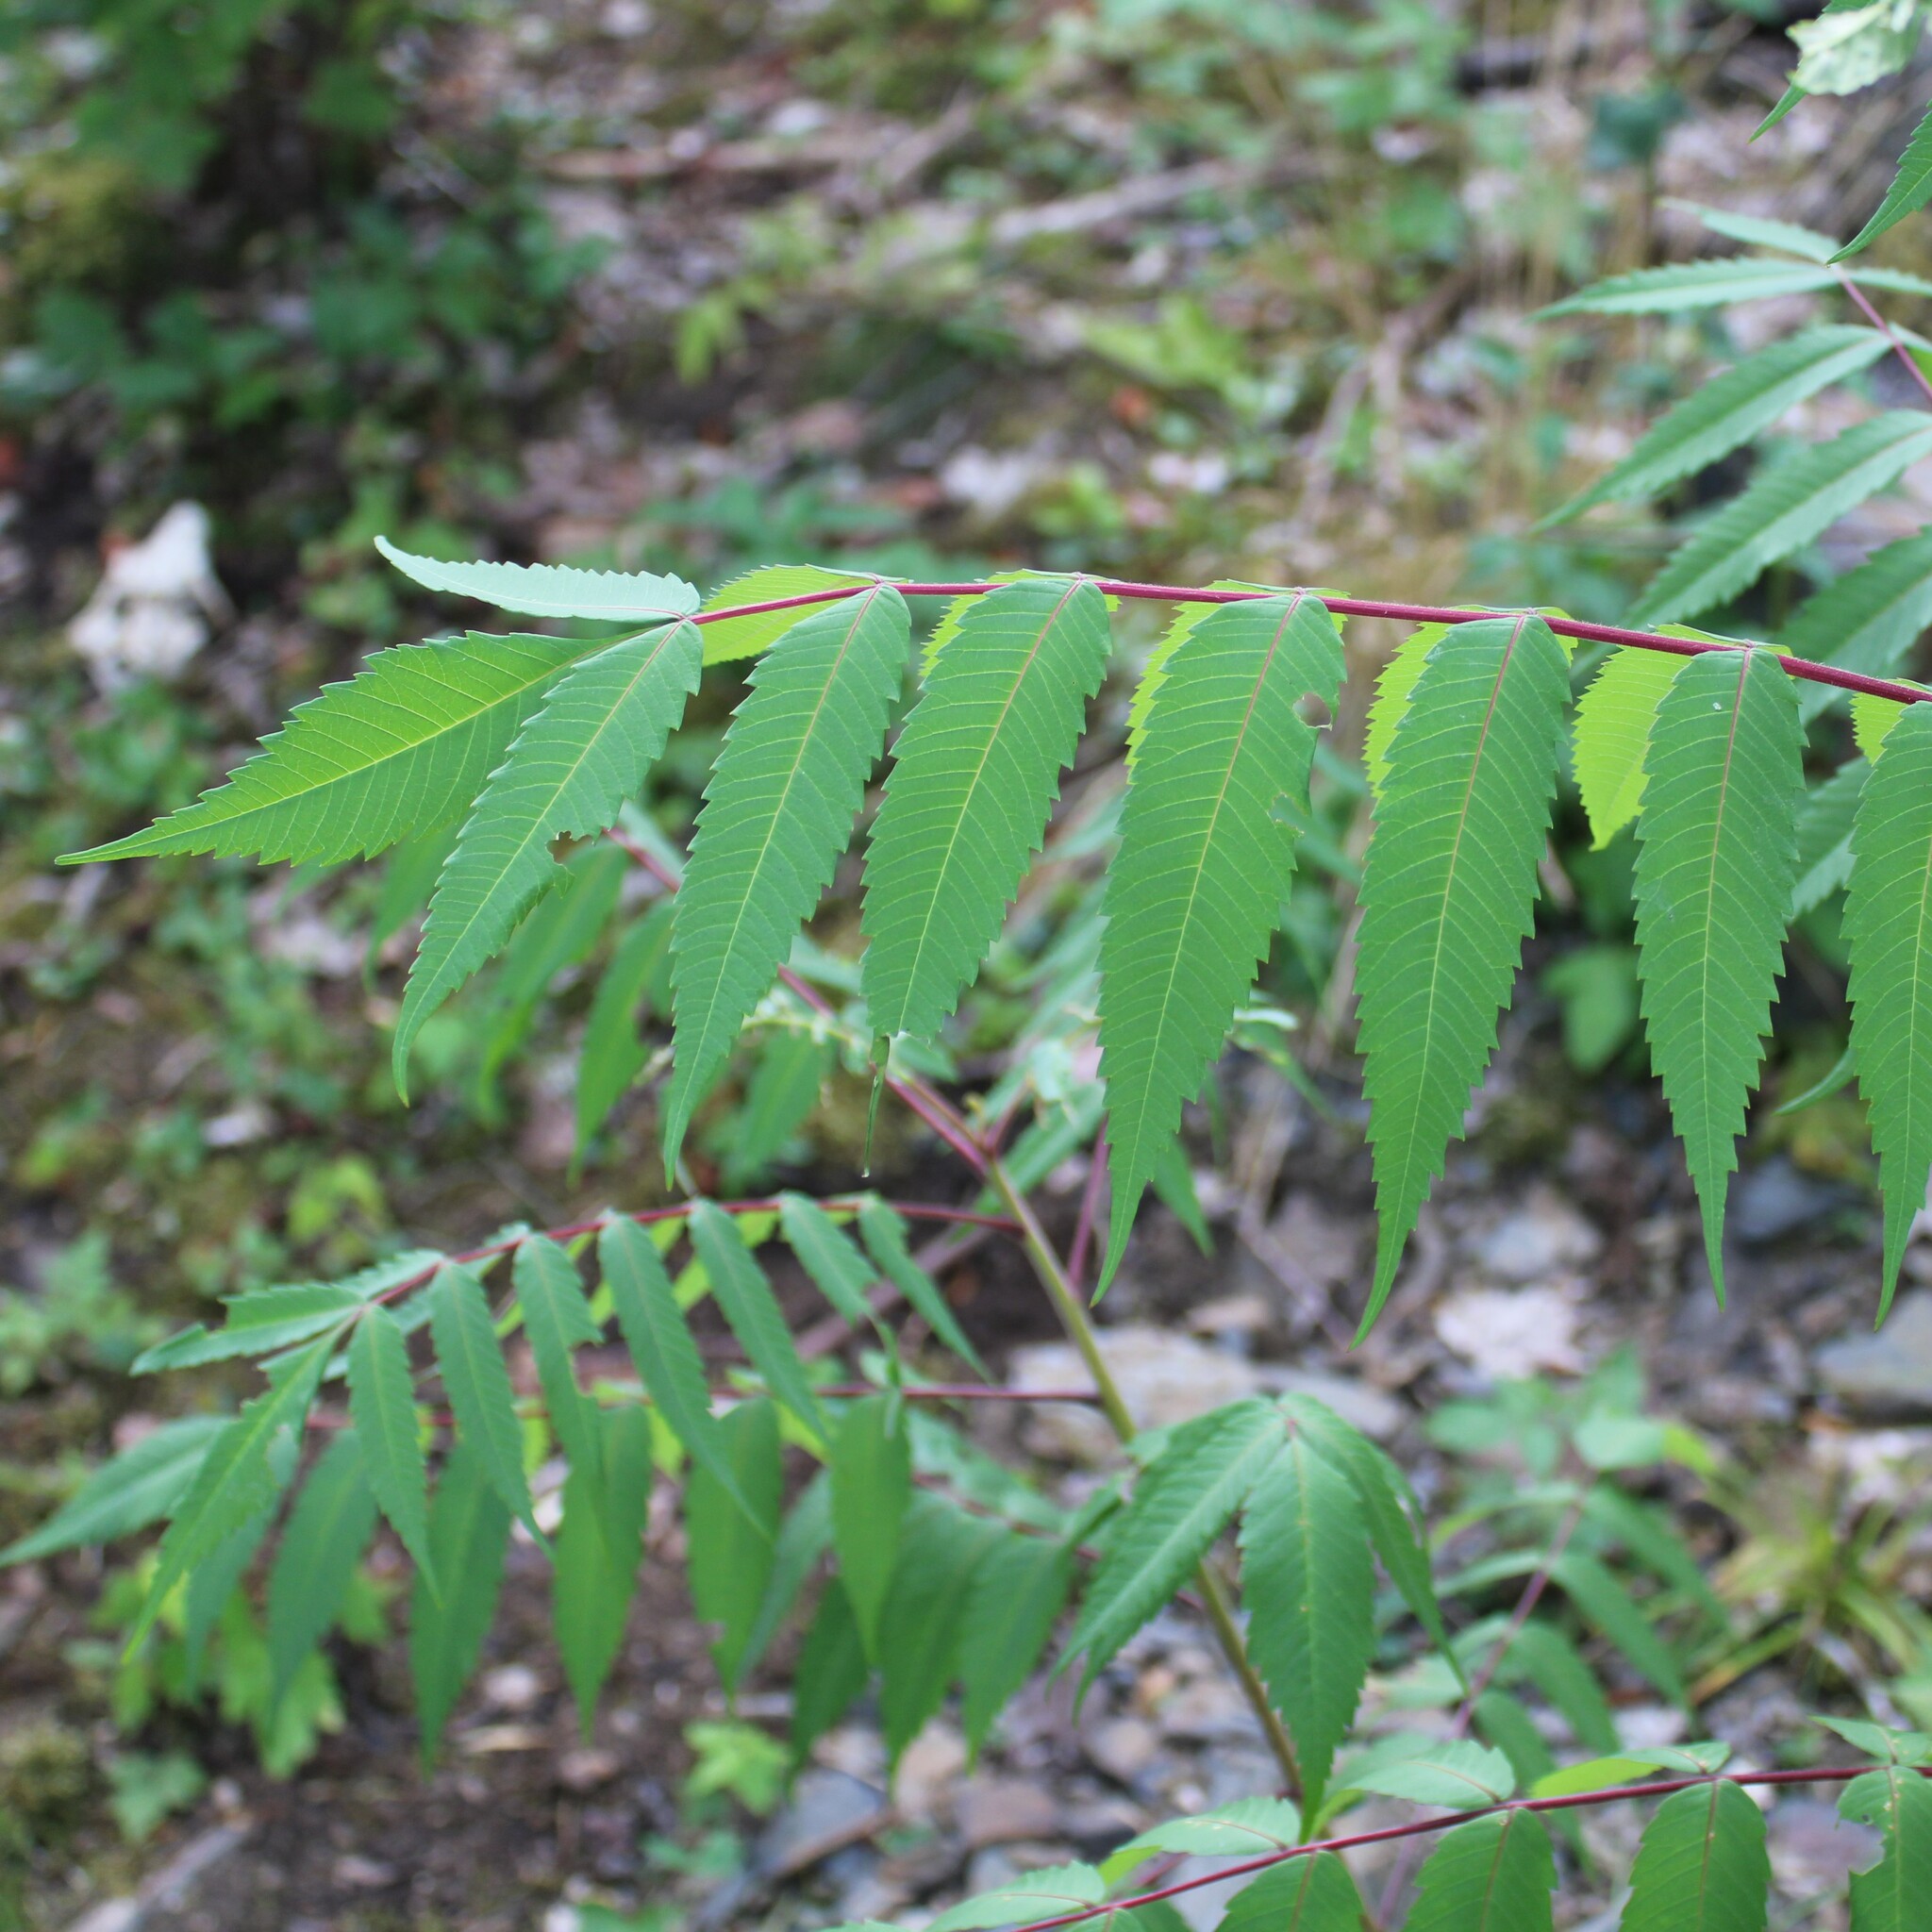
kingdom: Plantae
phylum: Tracheophyta
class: Magnoliopsida
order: Sapindales
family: Anacardiaceae
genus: Rhus
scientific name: Rhus typhina
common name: Staghorn sumac
